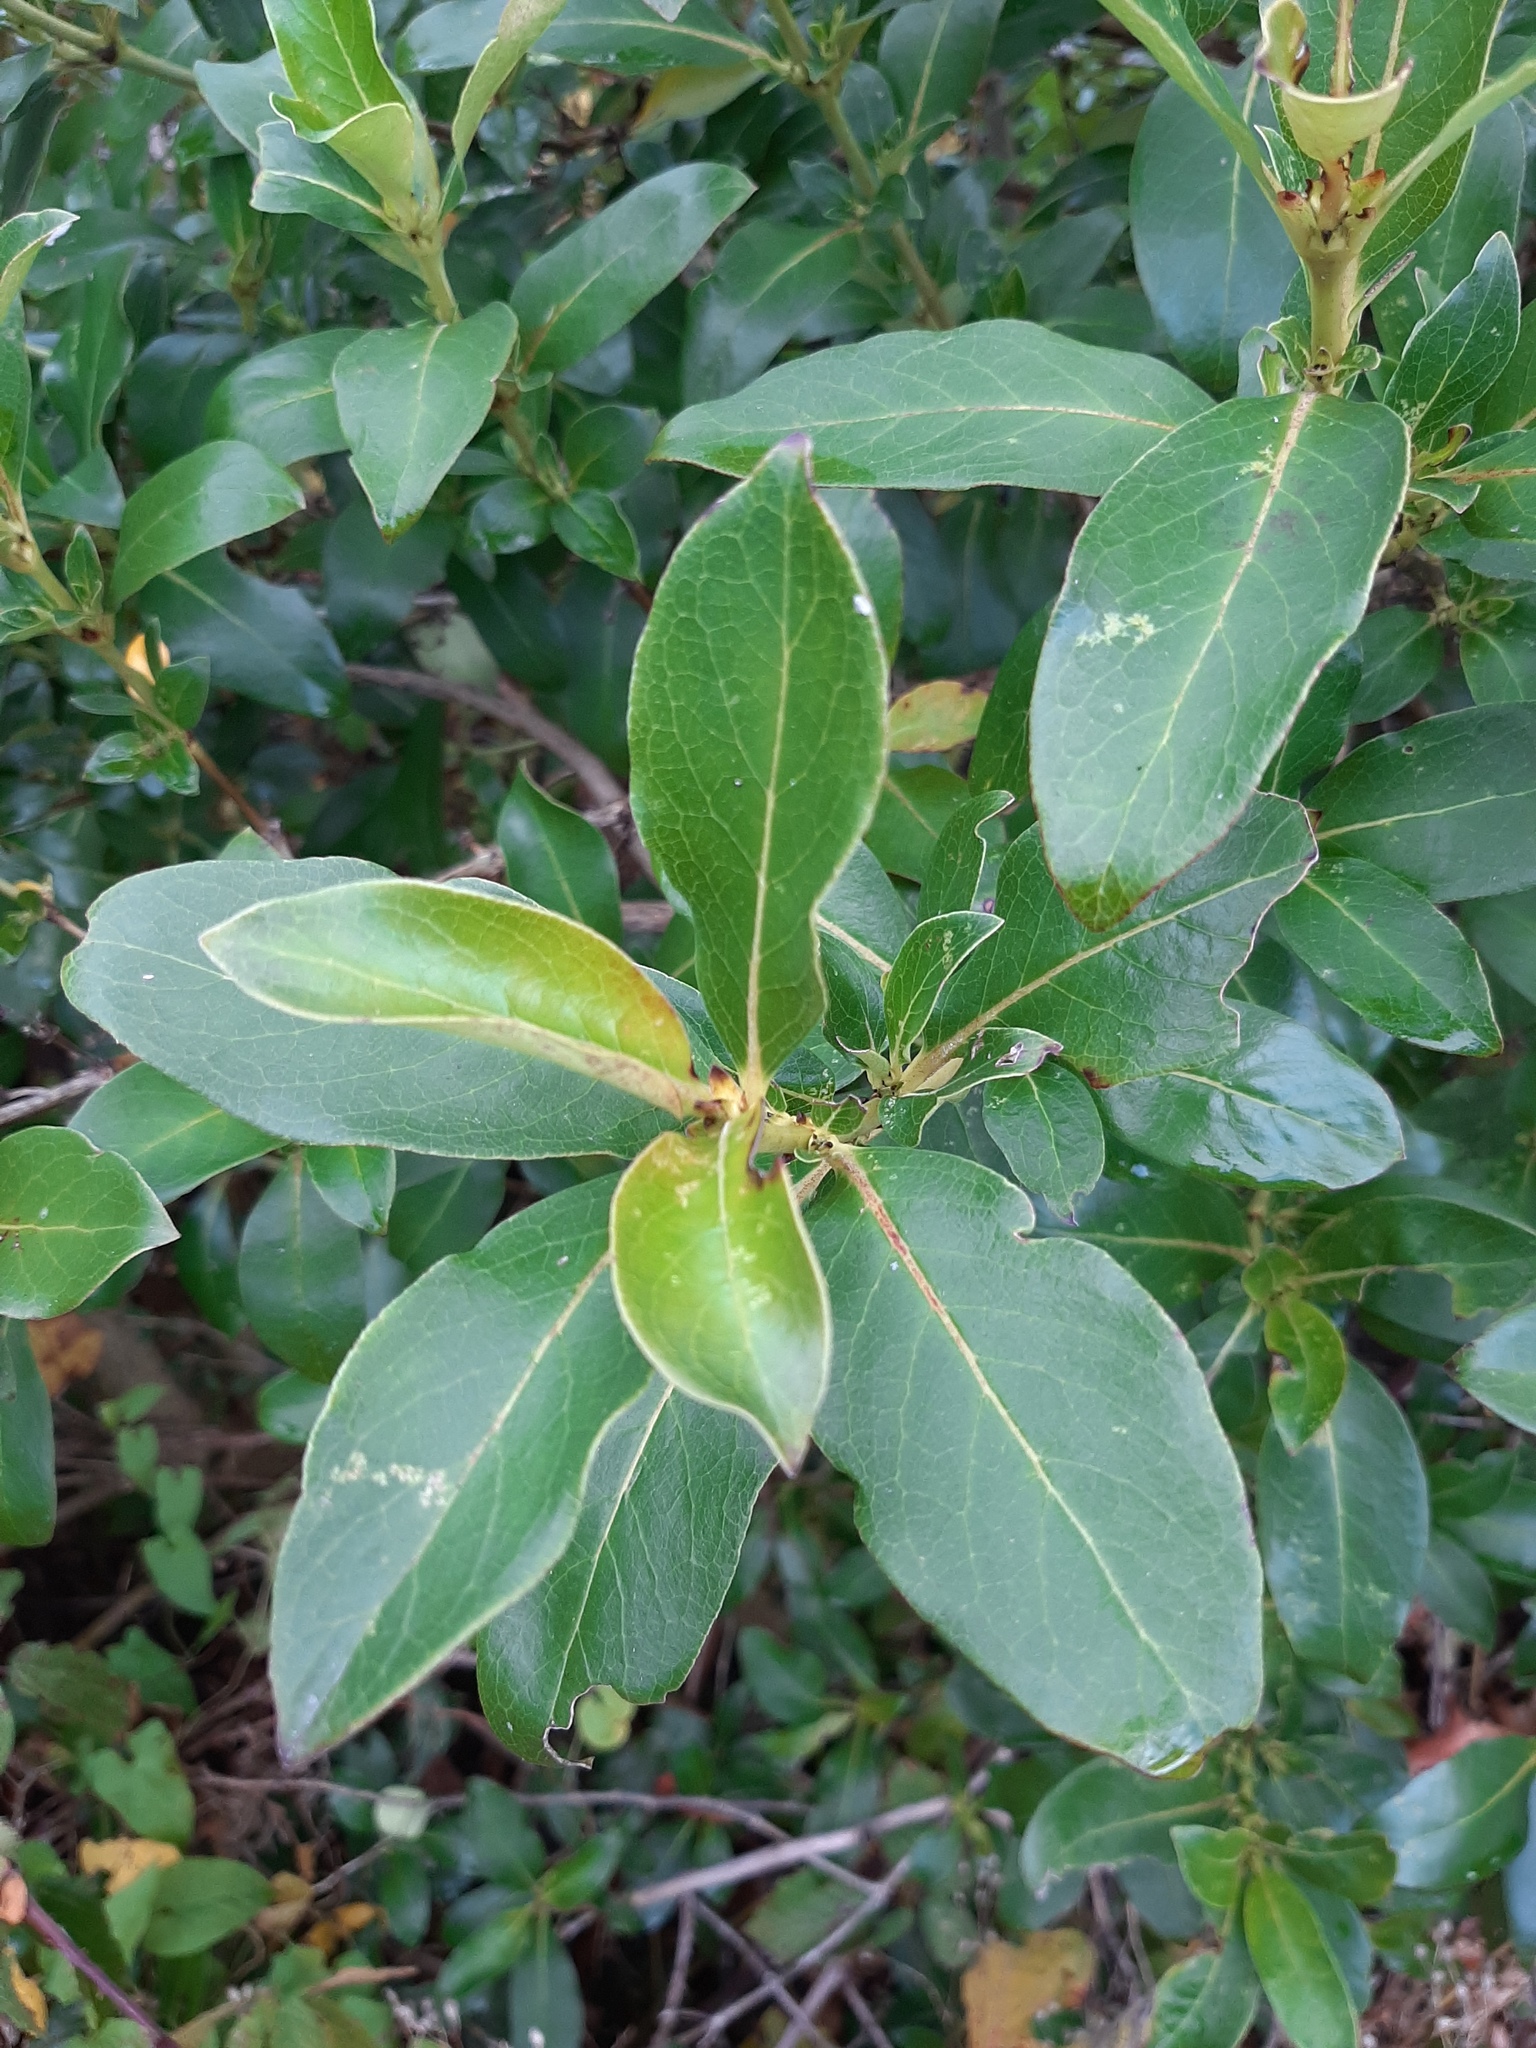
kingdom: Plantae
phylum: Tracheophyta
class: Magnoliopsida
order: Gentianales
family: Rubiaceae
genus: Coprosma
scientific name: Coprosma robusta
